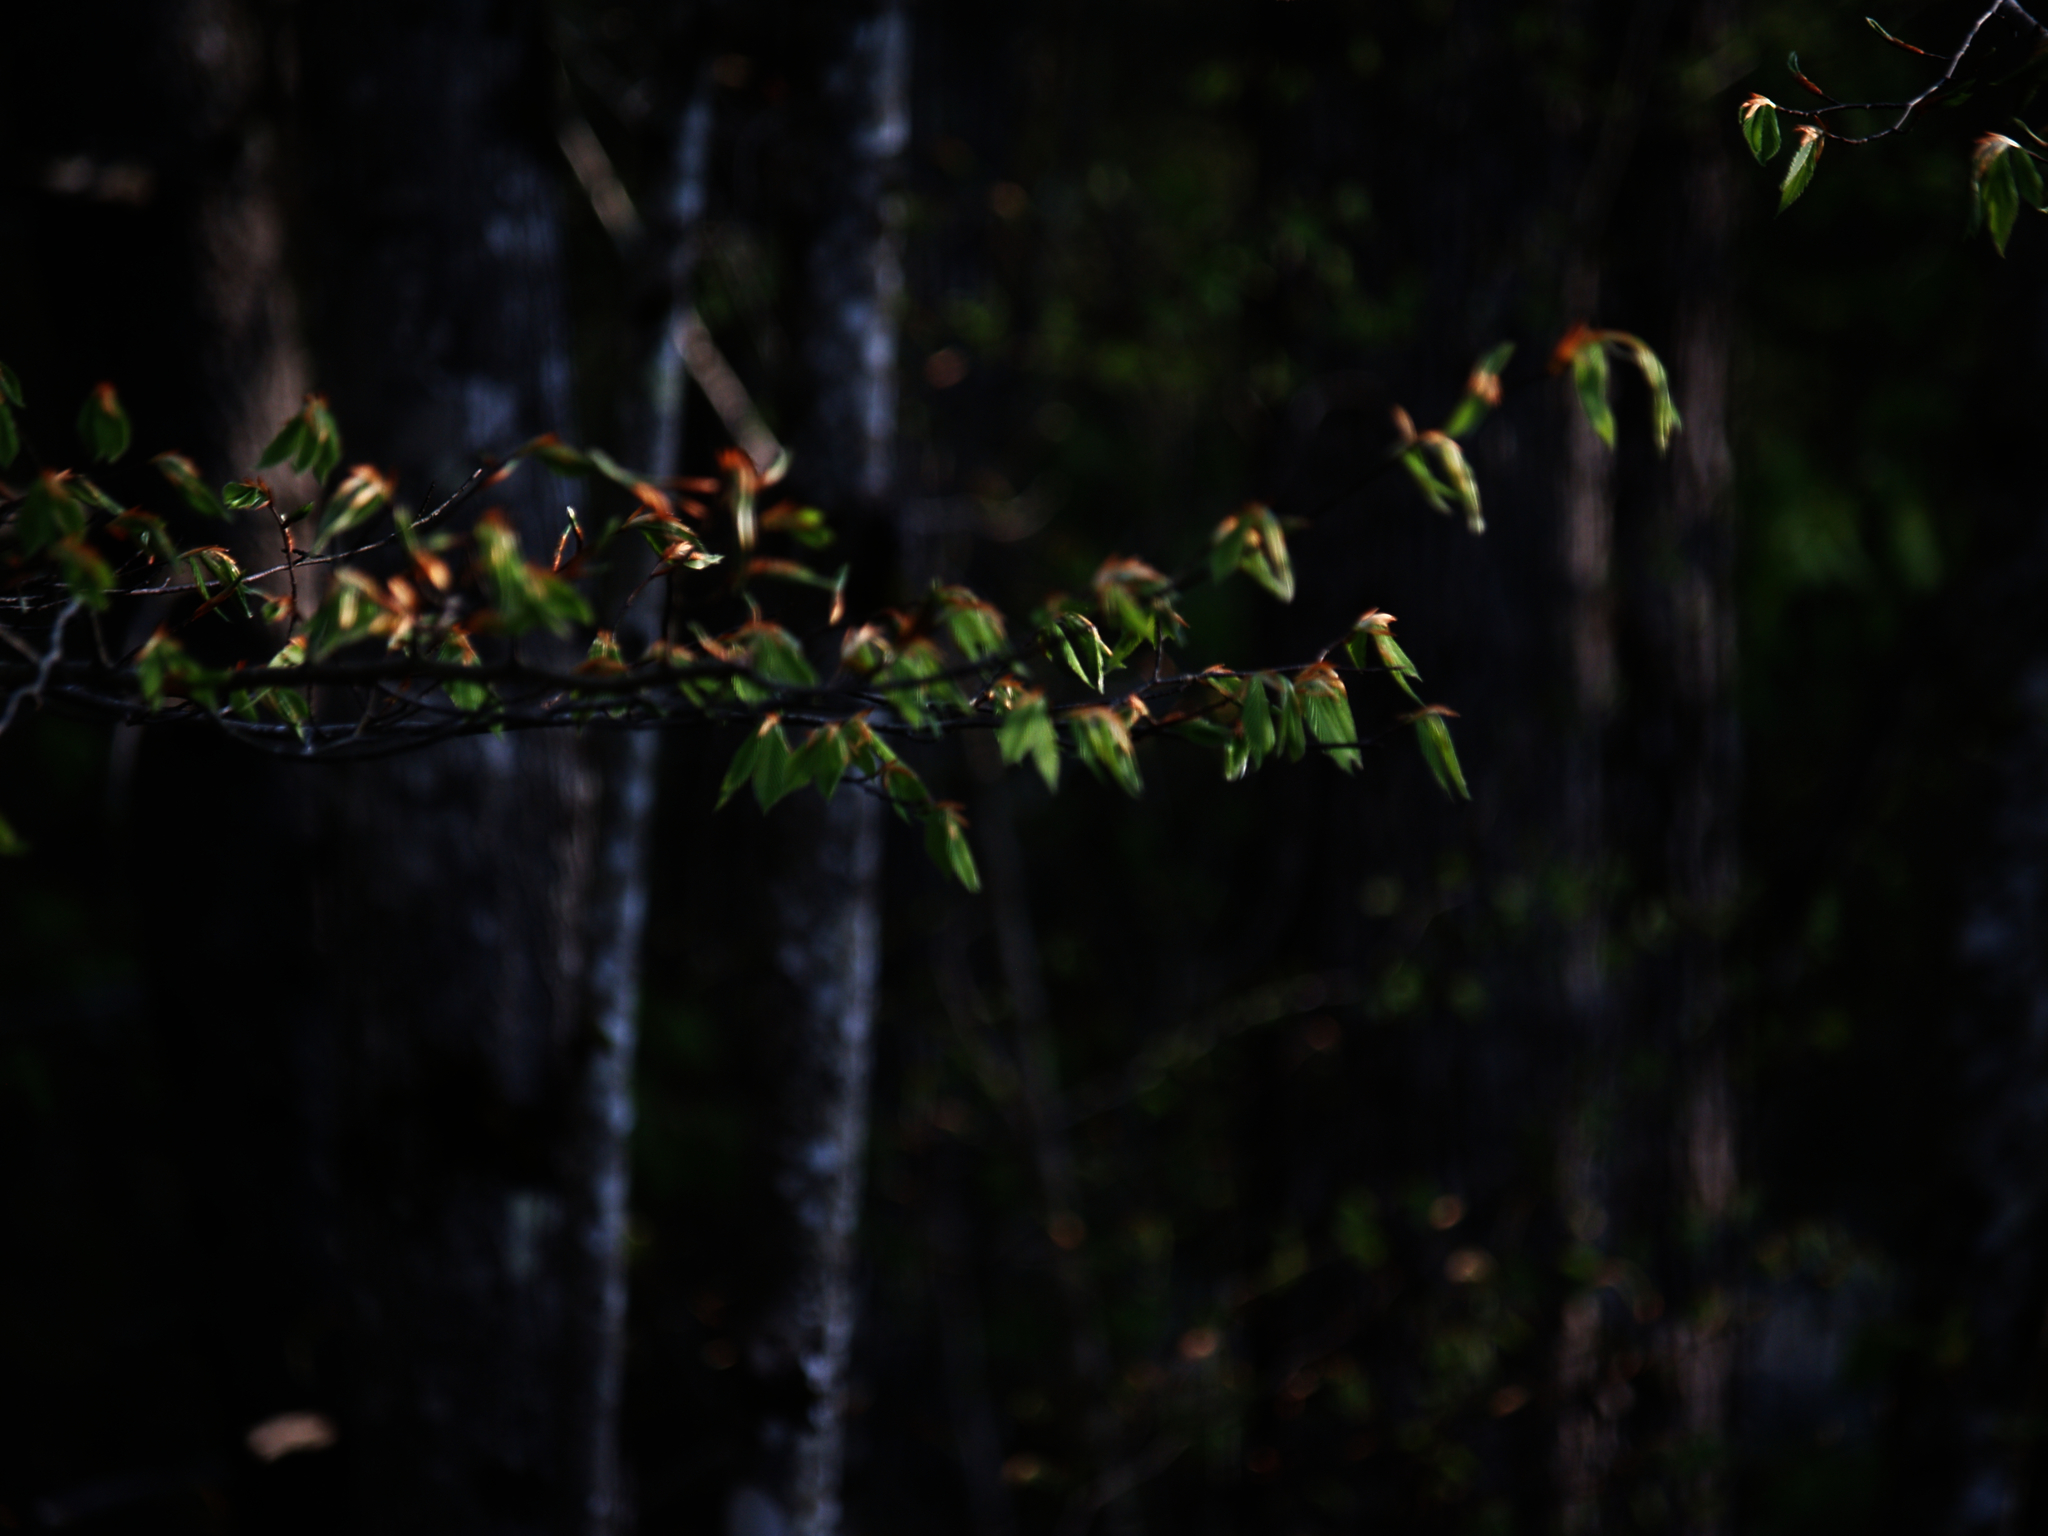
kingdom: Plantae
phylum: Tracheophyta
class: Magnoliopsida
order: Fagales
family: Fagaceae
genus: Fagus
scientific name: Fagus grandifolia
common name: American beech
